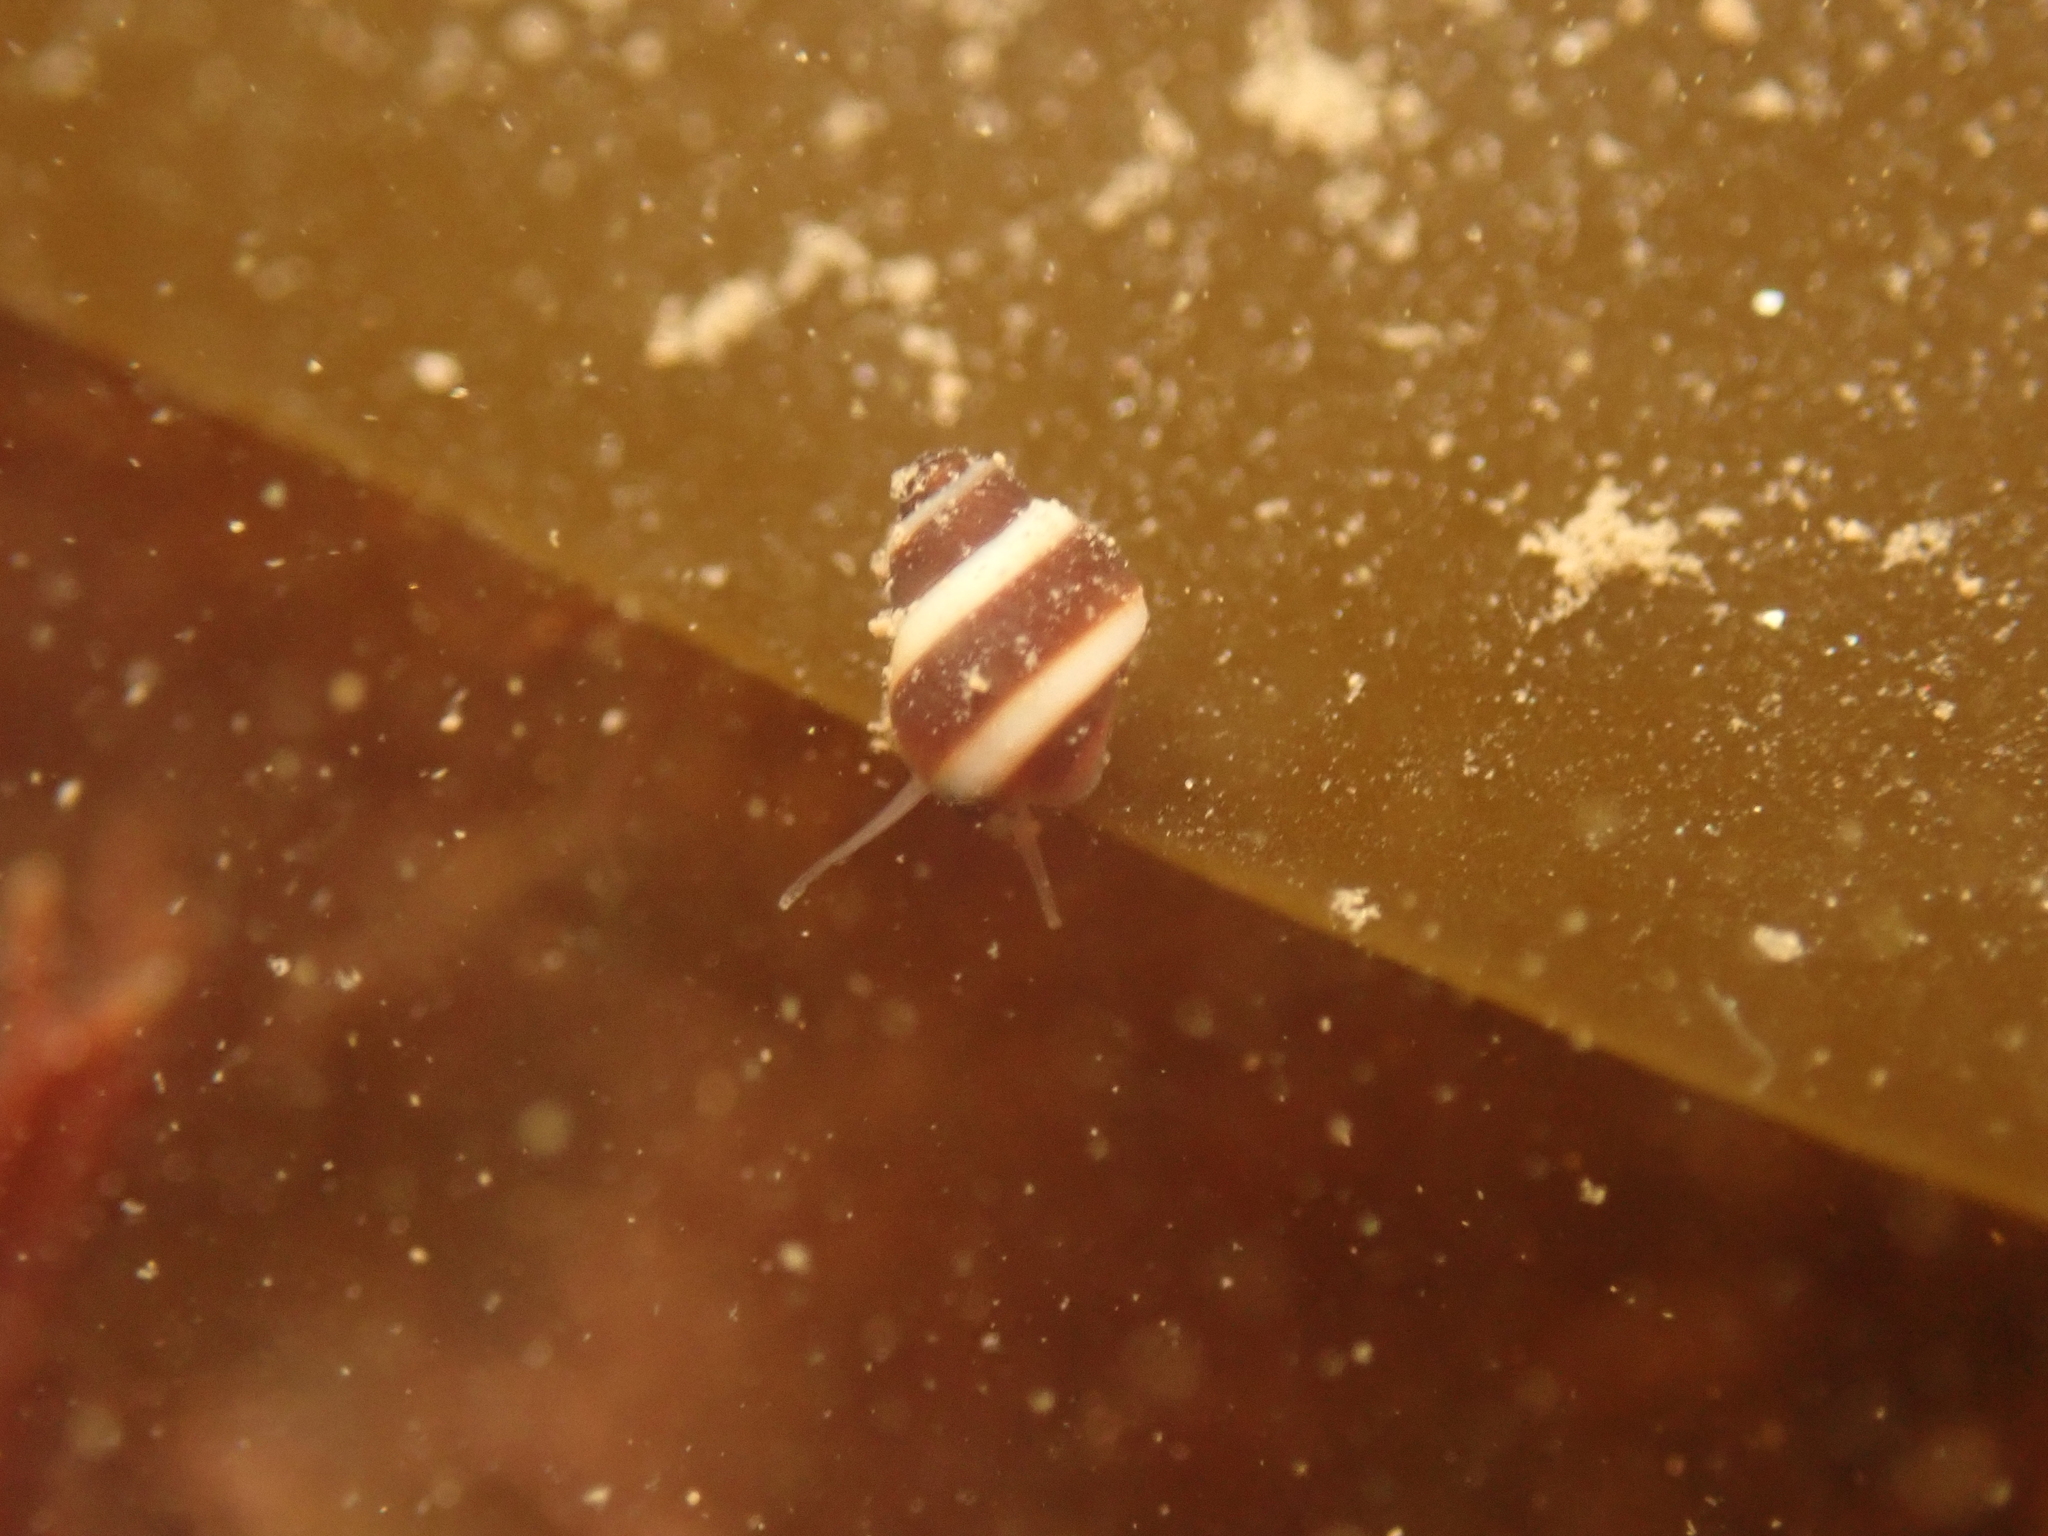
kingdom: Animalia
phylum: Mollusca
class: Gastropoda
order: Littorinimorpha
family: Littorinidae
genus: Lacuna
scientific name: Lacuna vincta
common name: Banded chink shell
